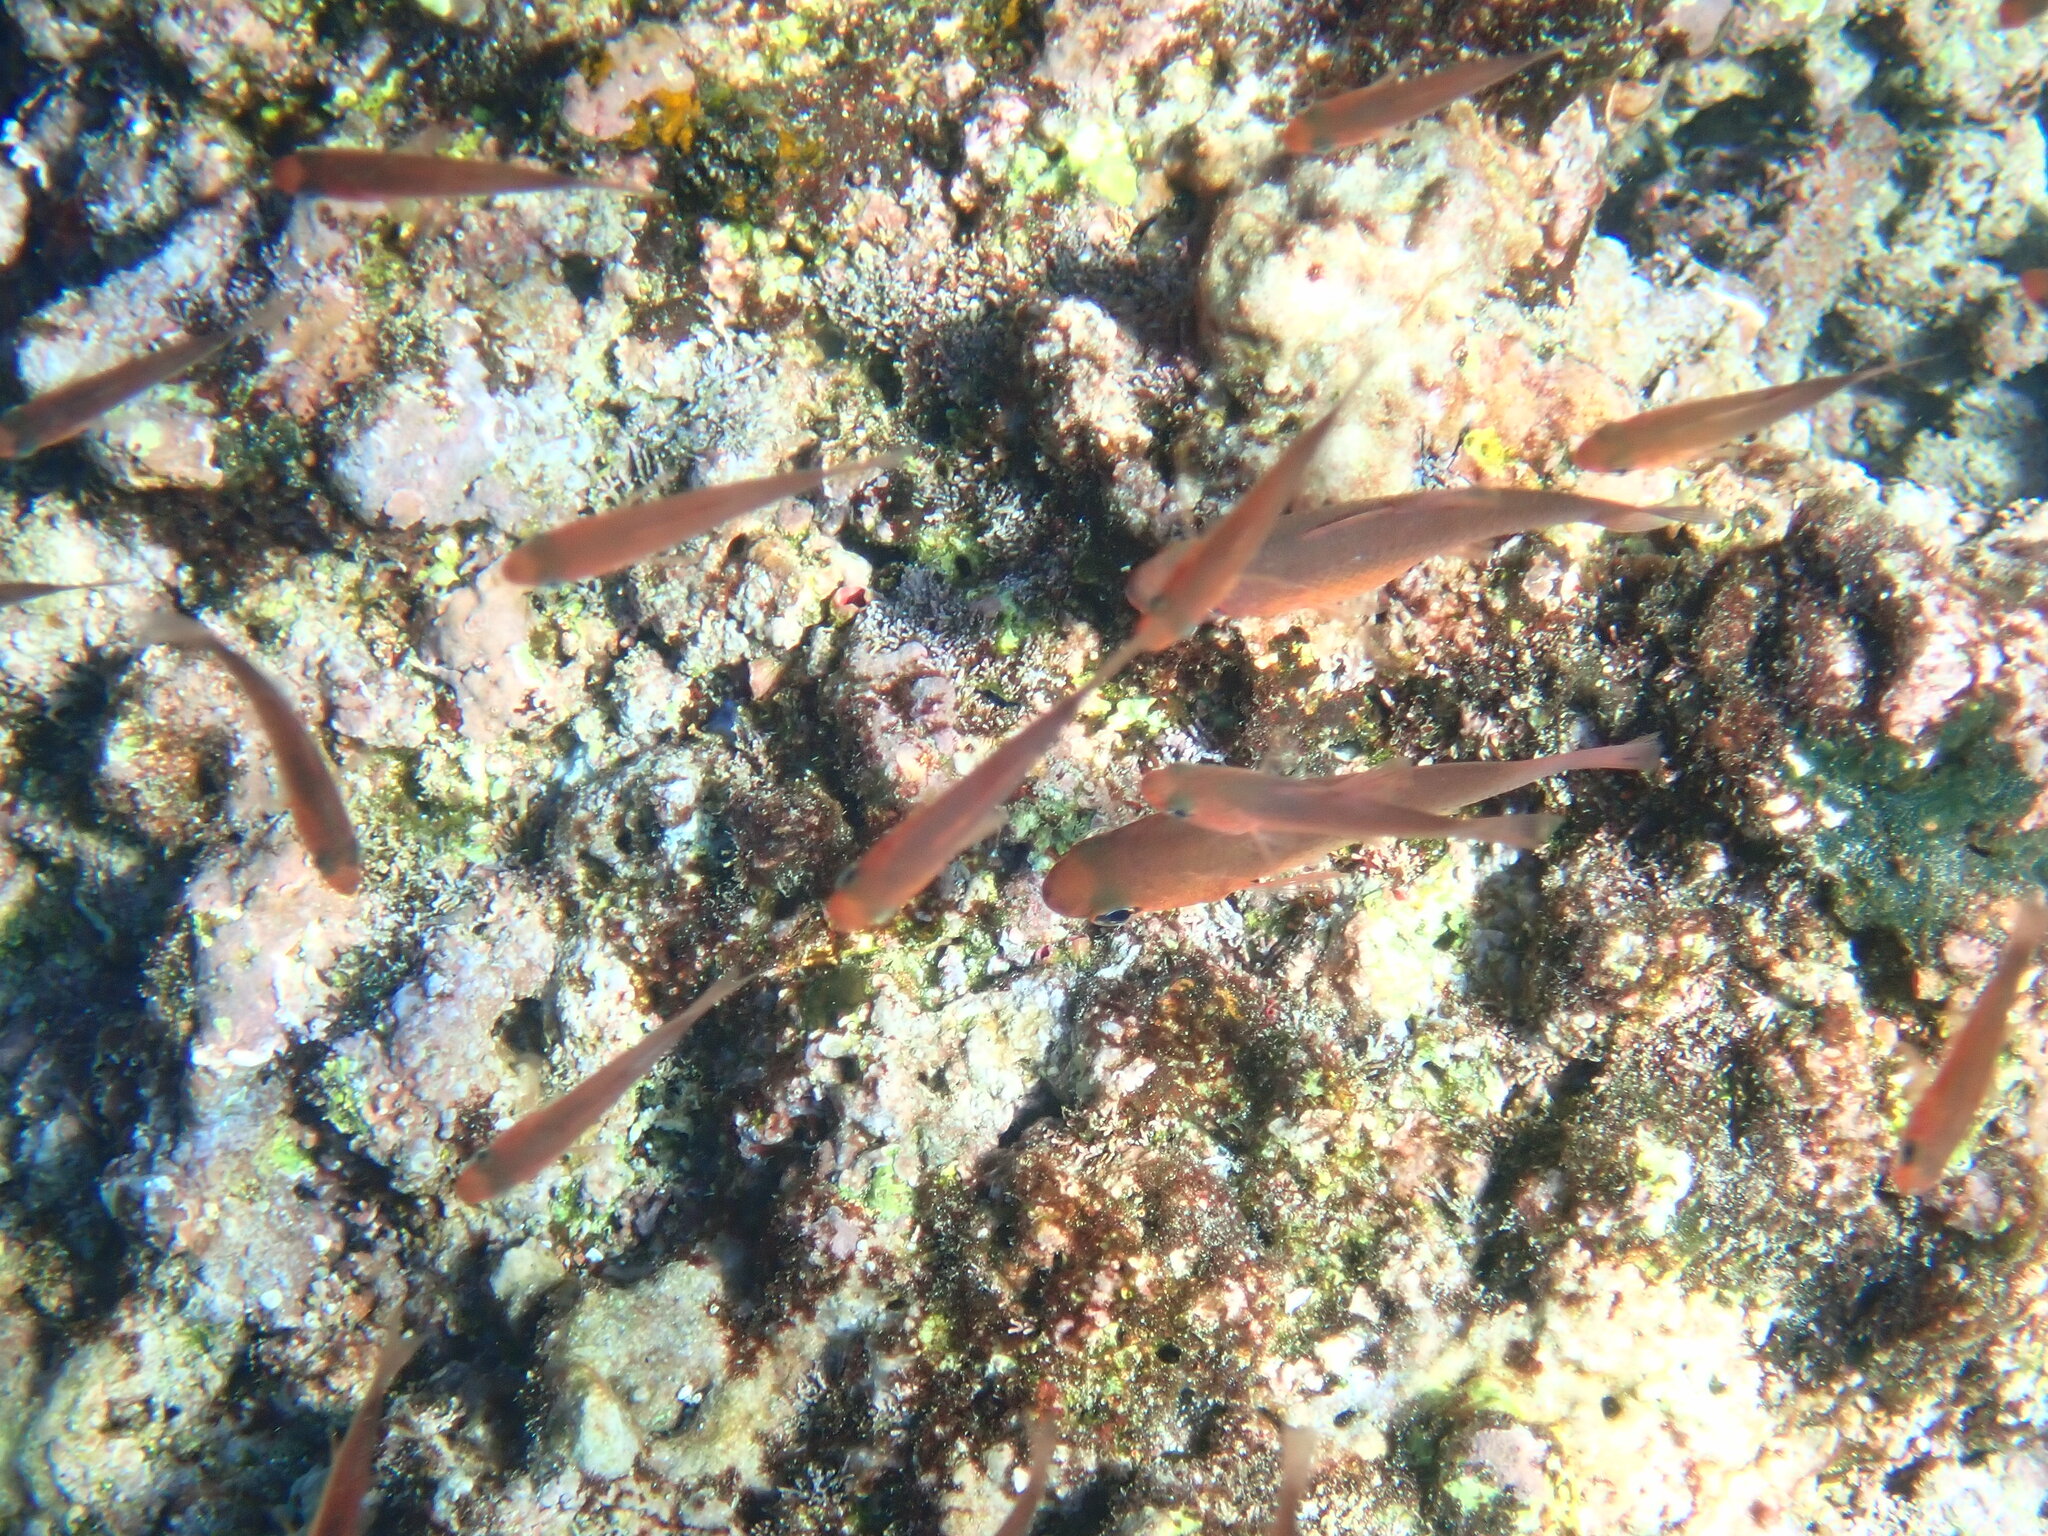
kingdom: Animalia
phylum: Chordata
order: Perciformes
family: Apogonidae
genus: Apogon
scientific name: Apogon atradorsatus
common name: Blacktip cardinalfish
